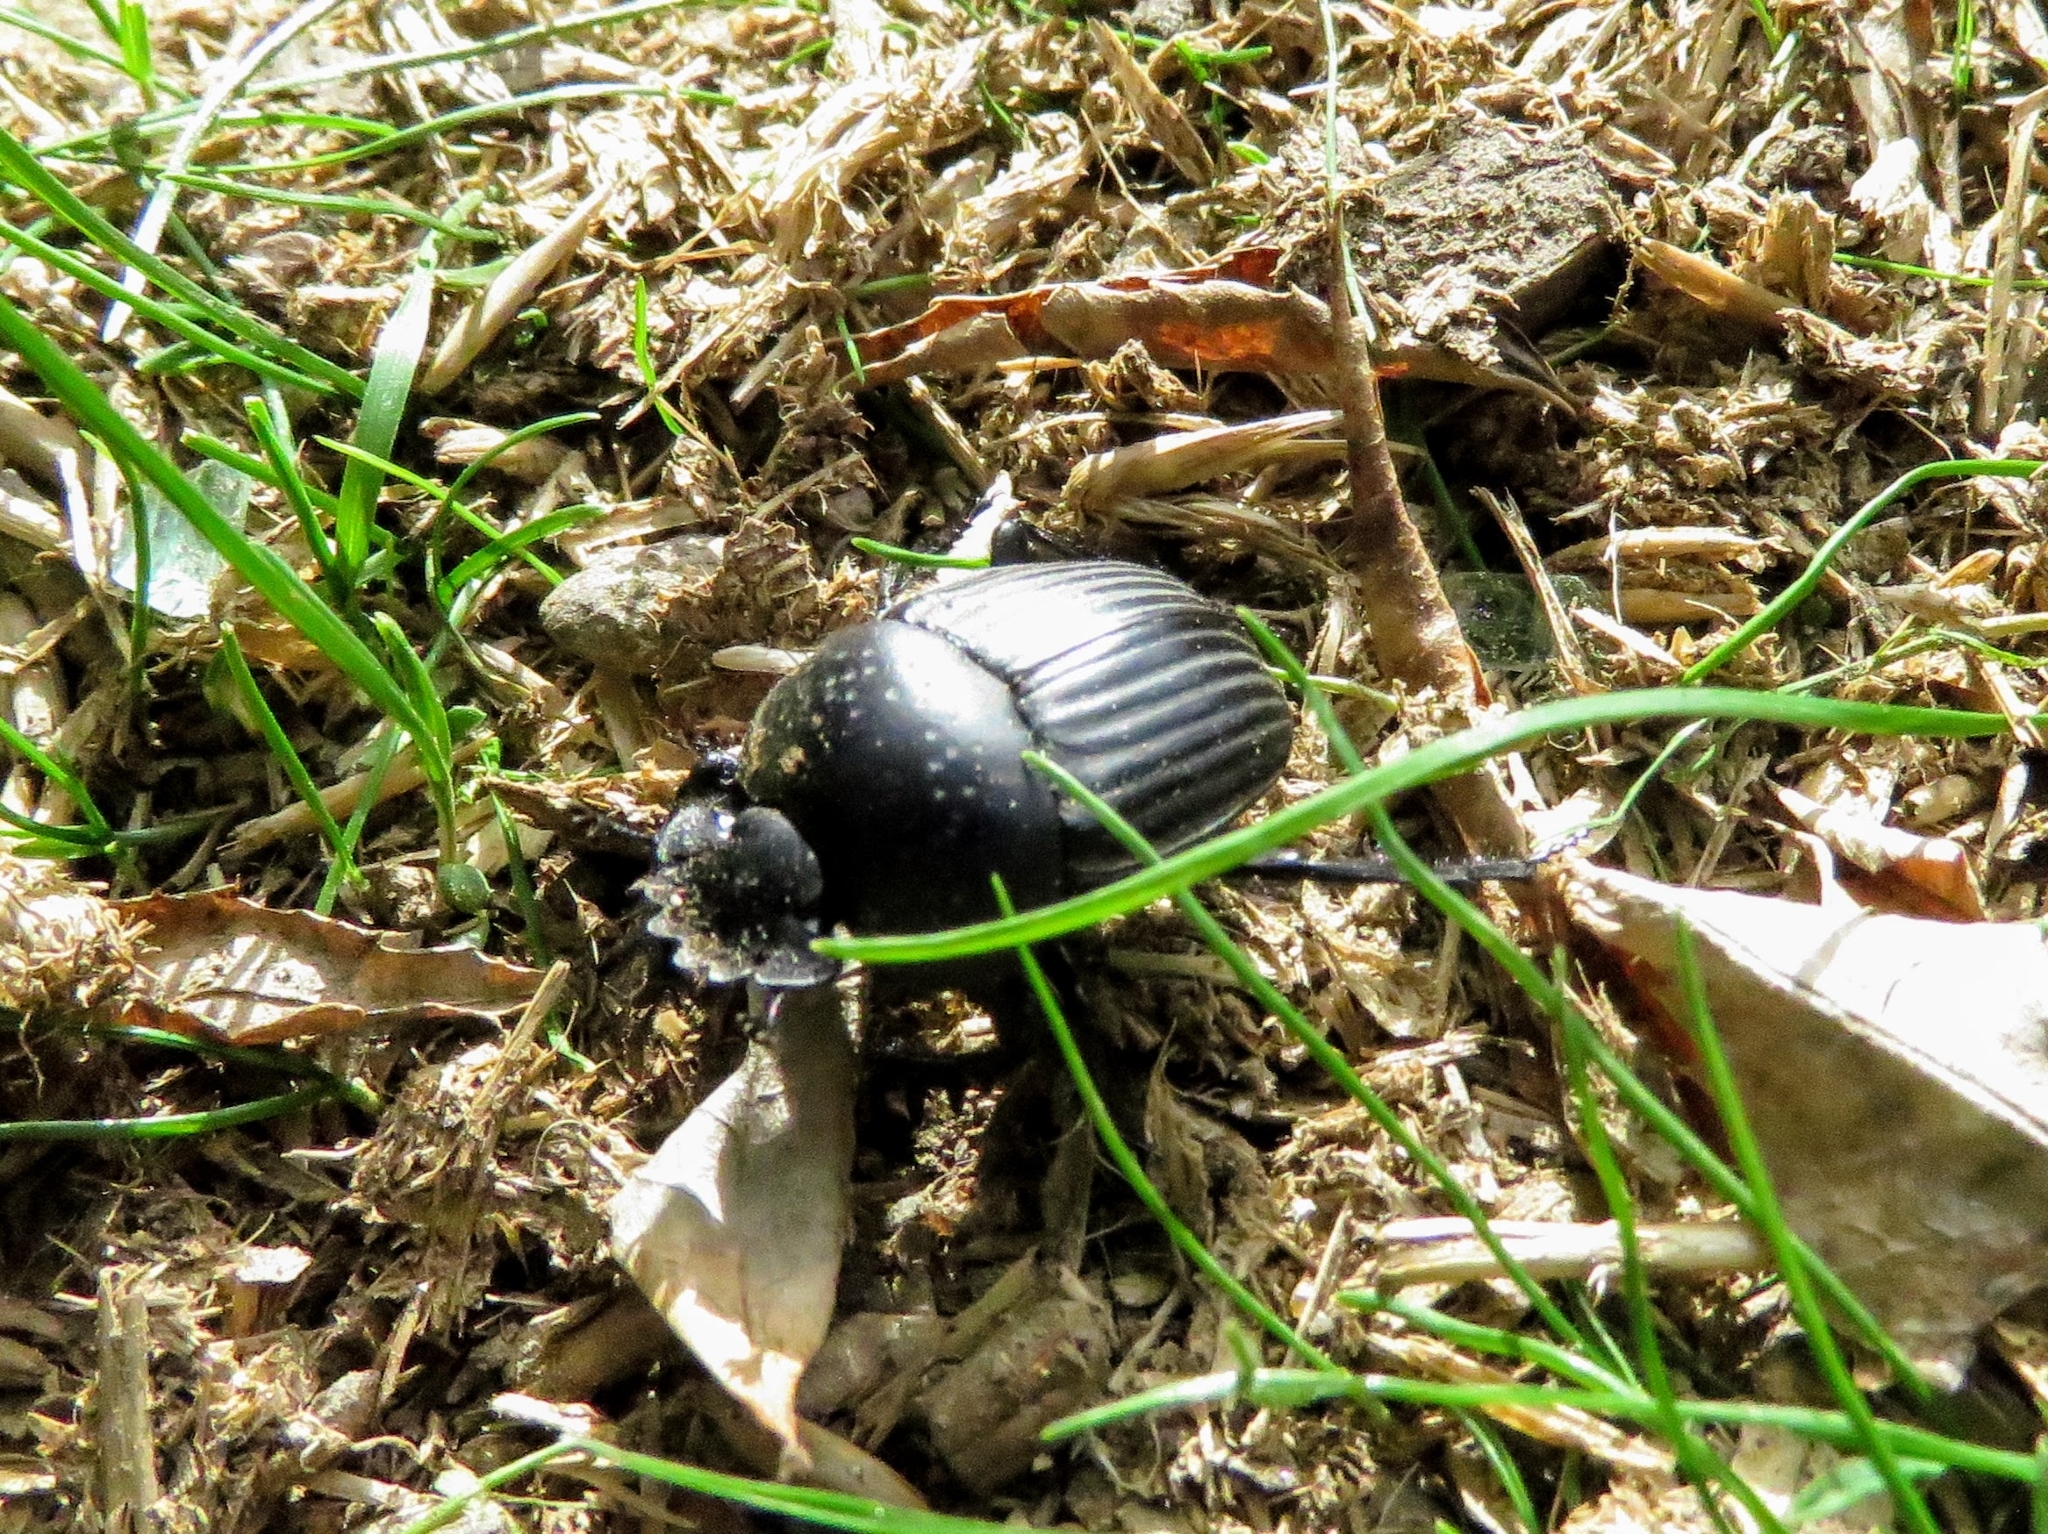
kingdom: Animalia
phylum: Arthropoda
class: Insecta
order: Coleoptera
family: Scarabaeidae
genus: Ateuchetus
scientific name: Ateuchetus laticollis
